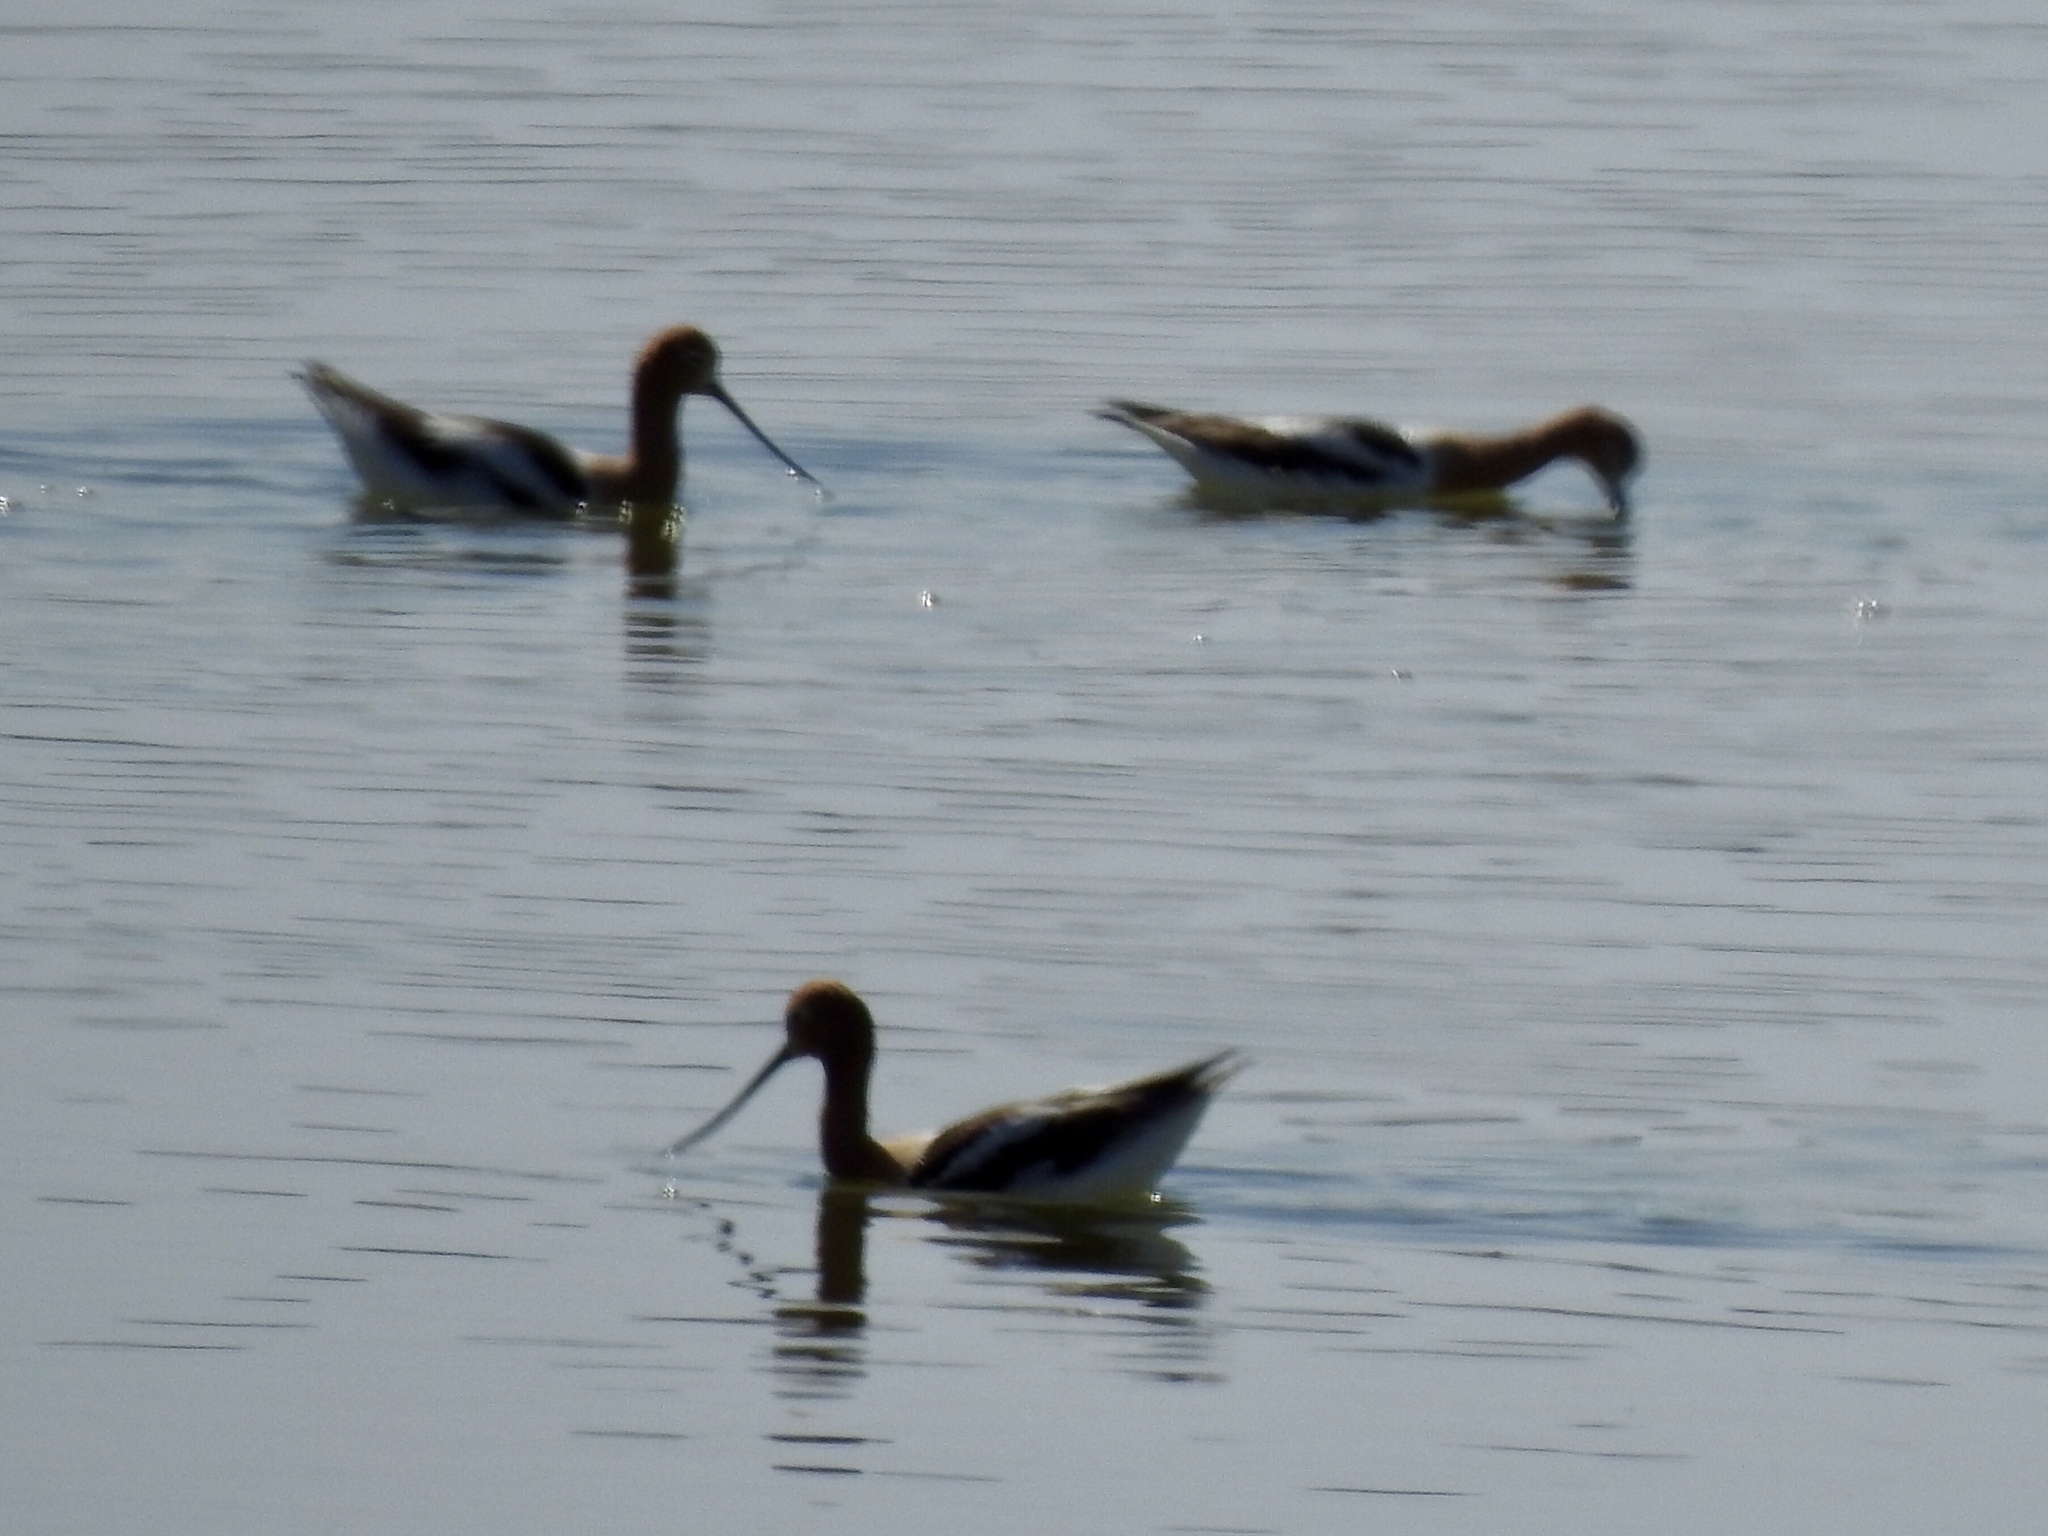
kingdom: Animalia
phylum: Chordata
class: Aves
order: Charadriiformes
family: Recurvirostridae
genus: Recurvirostra
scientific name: Recurvirostra americana
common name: American avocet
